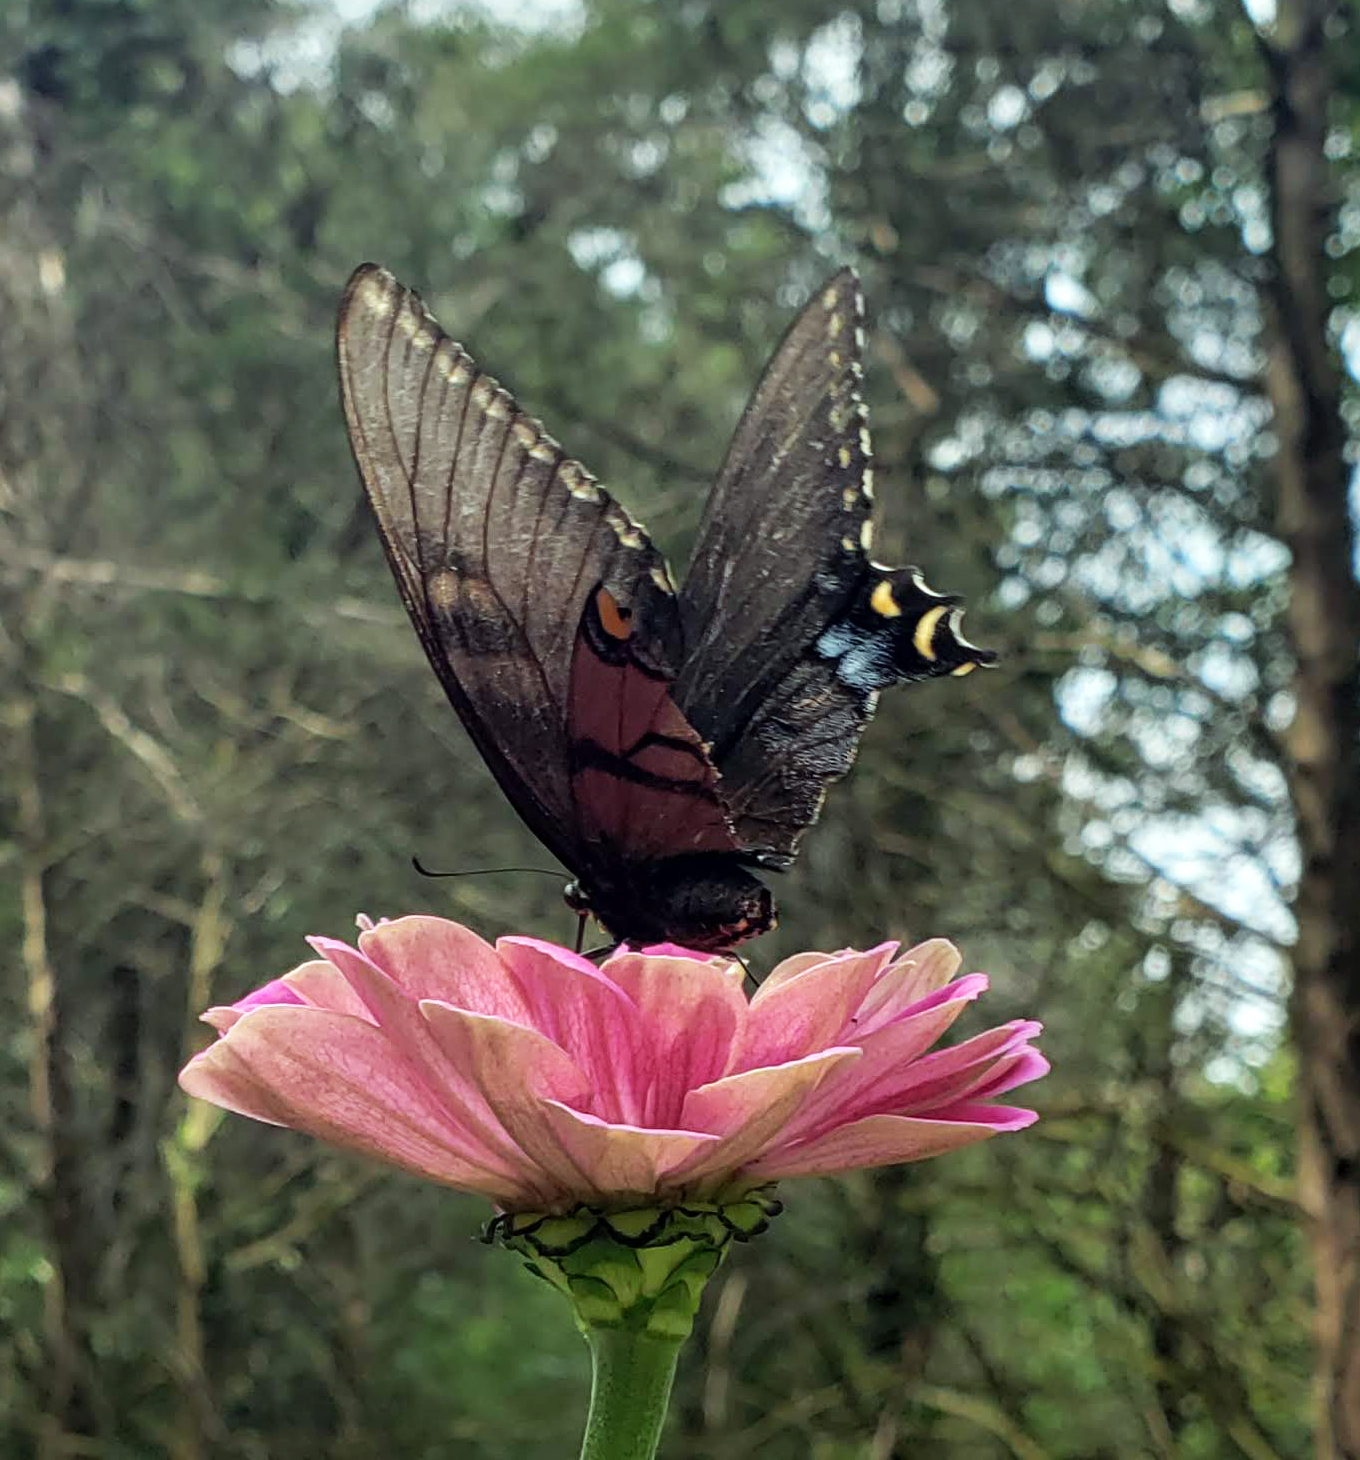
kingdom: Animalia
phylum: Arthropoda
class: Insecta
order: Lepidoptera
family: Papilionidae
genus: Papilio
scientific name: Papilio glaucus
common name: Tiger swallowtail
